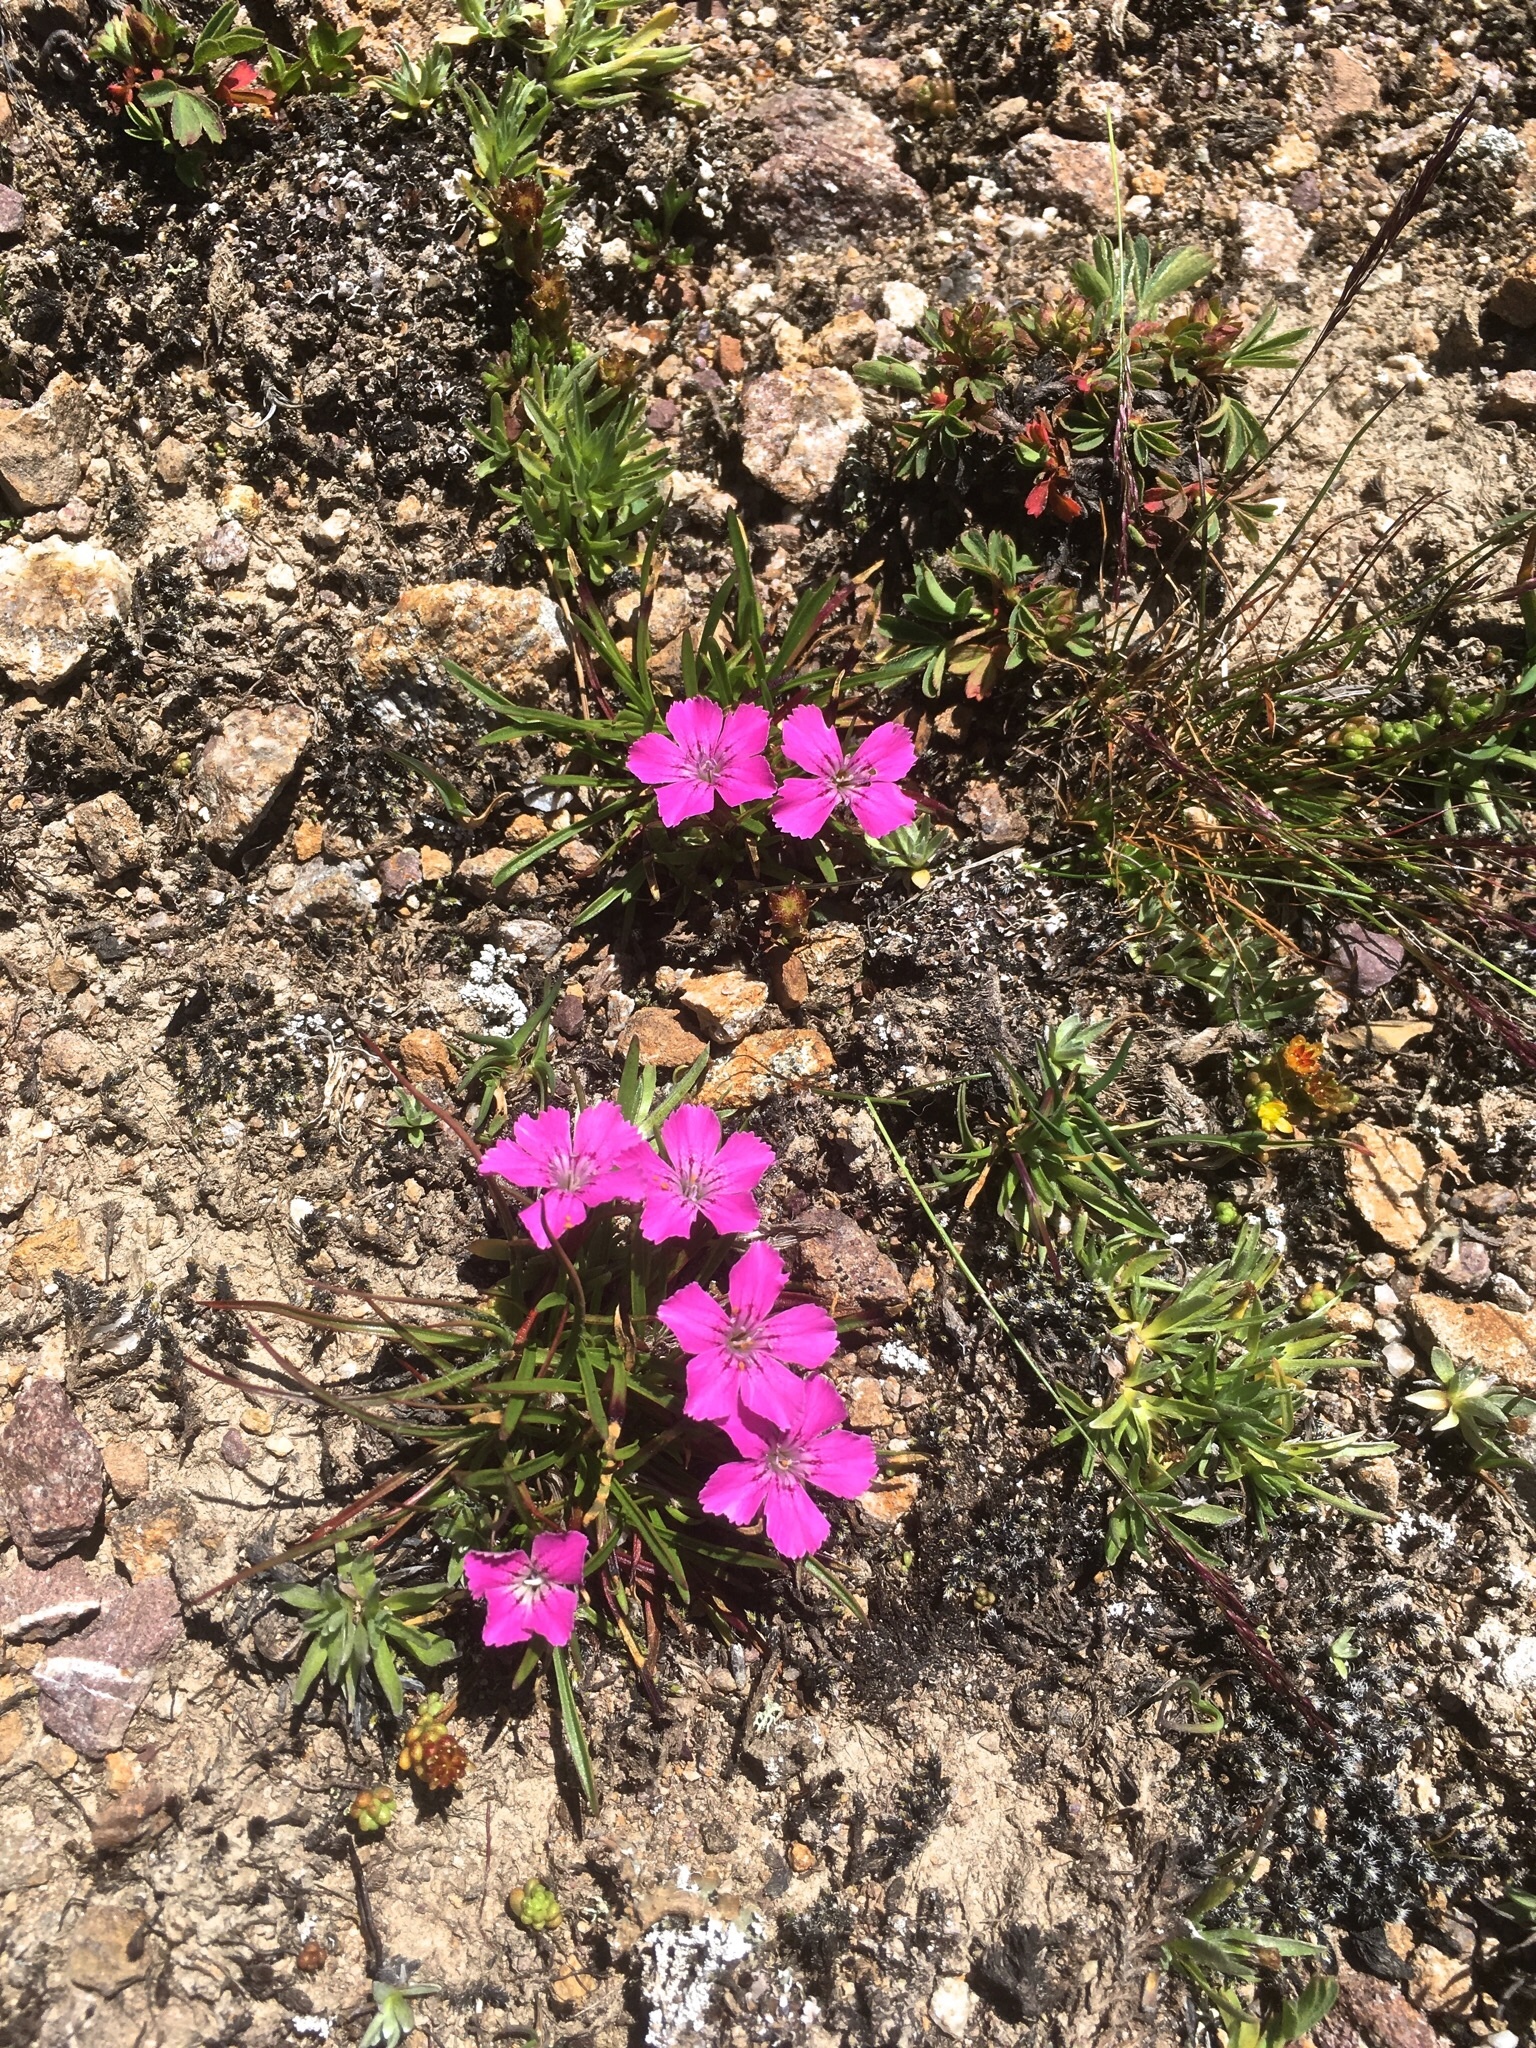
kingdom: Plantae
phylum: Tracheophyta
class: Magnoliopsida
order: Caryophyllales
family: Caryophyllaceae
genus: Dianthus
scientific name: Dianthus glacialis
